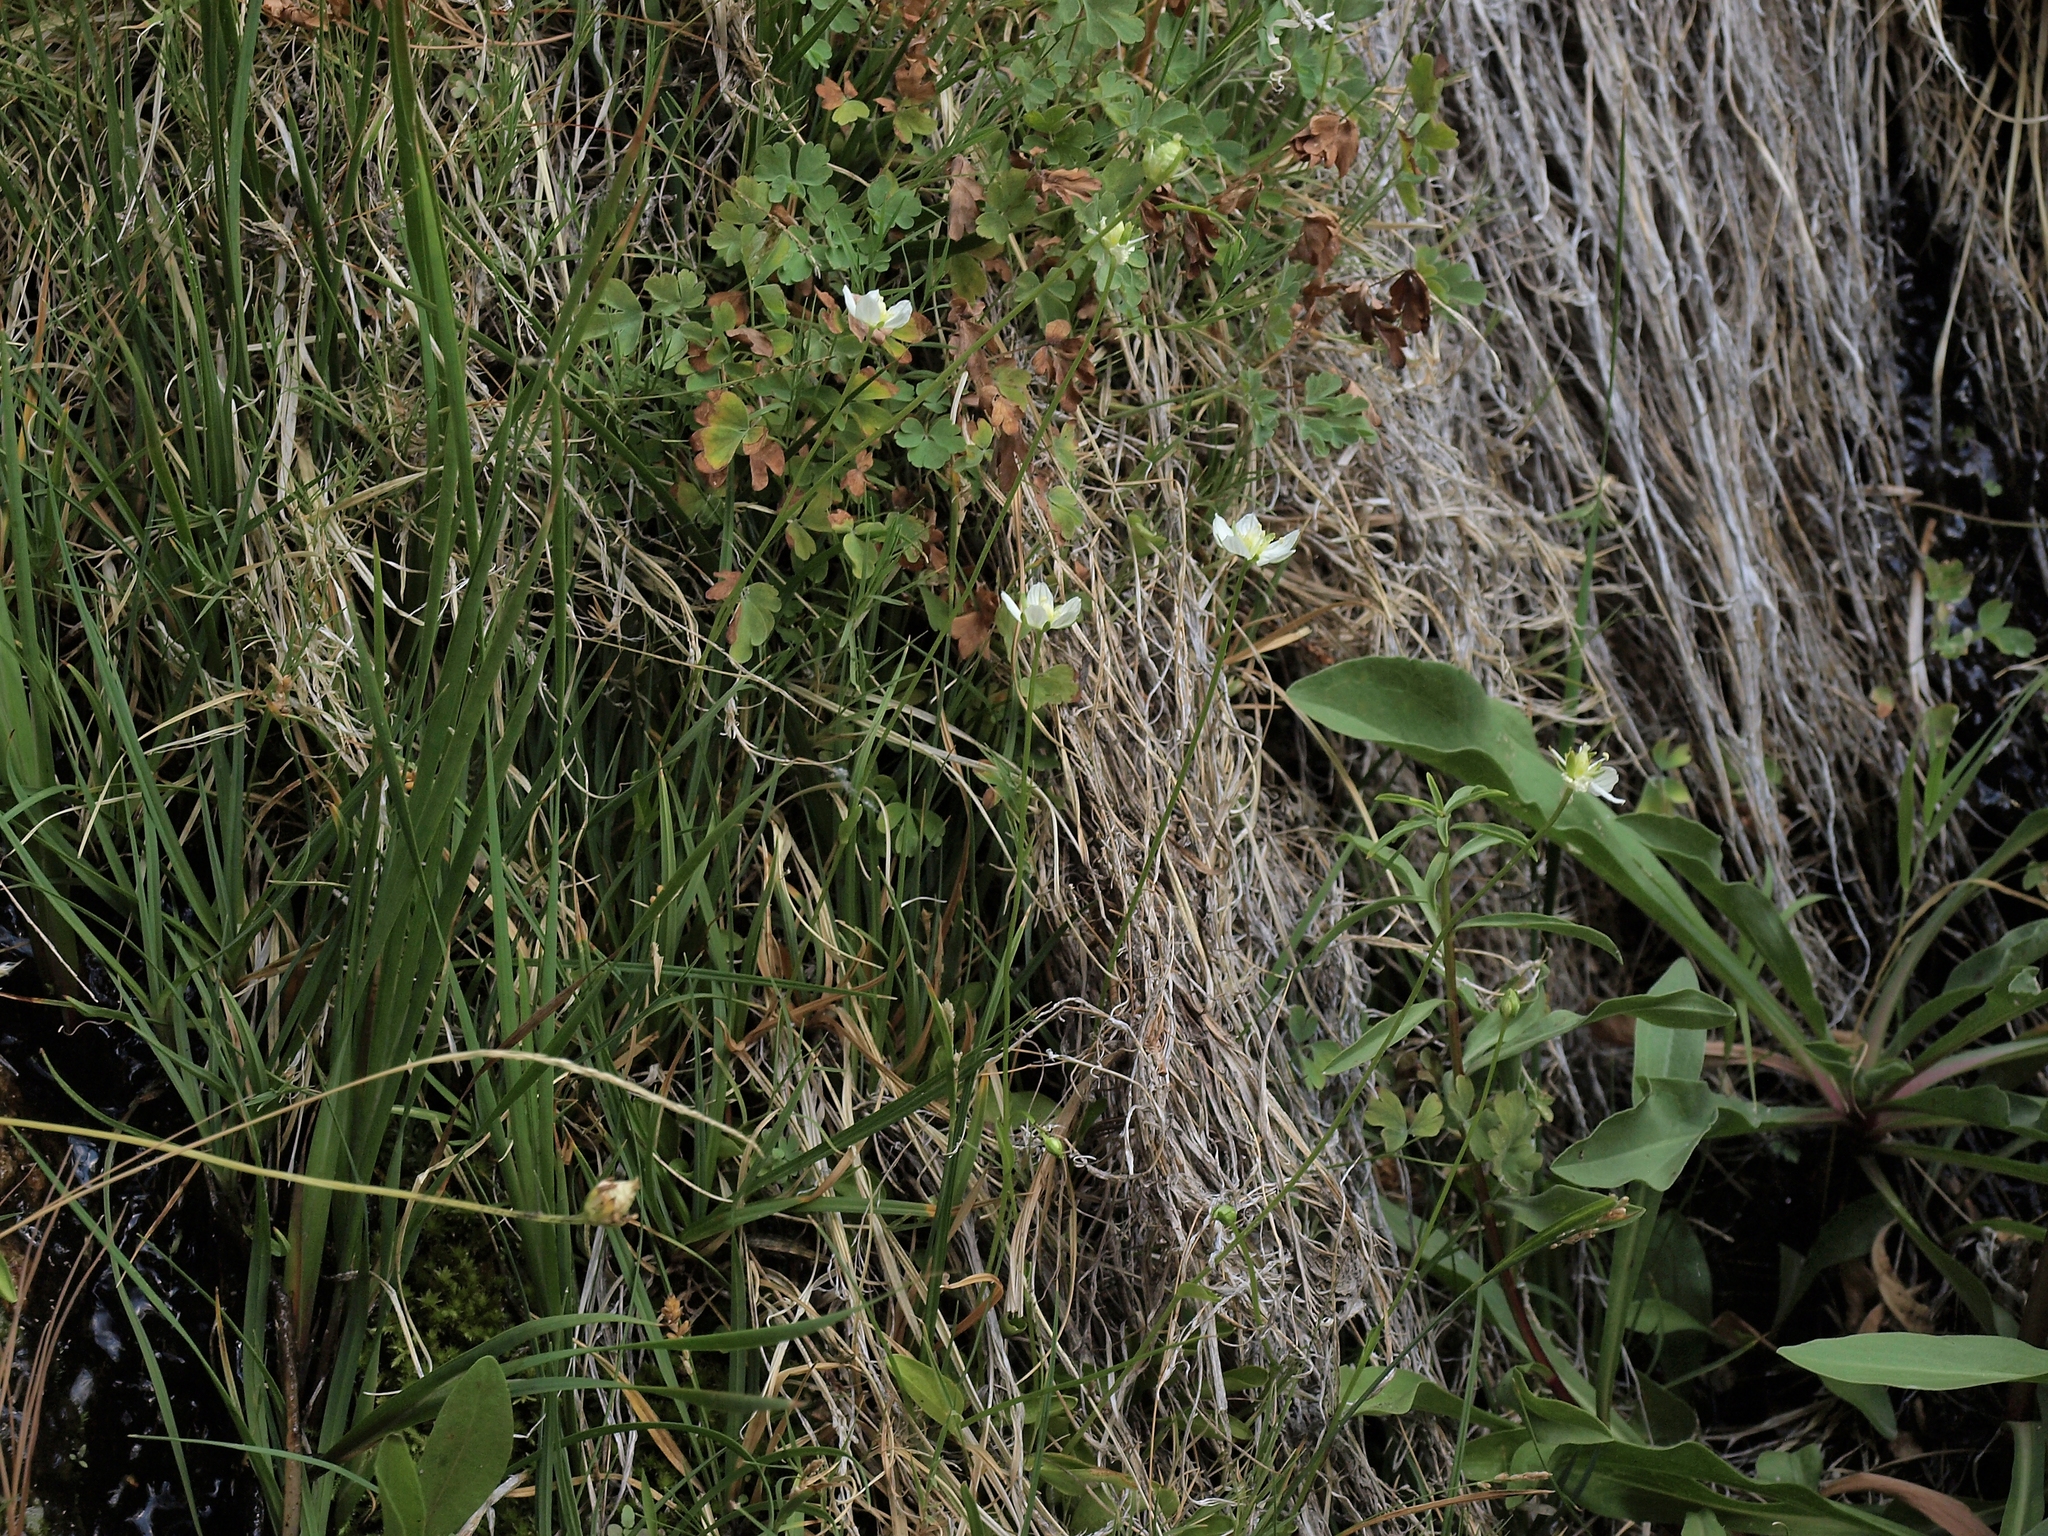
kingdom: Plantae
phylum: Tracheophyta
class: Magnoliopsida
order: Celastrales
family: Parnassiaceae
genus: Parnassia
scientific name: Parnassia palustris
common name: Grass-of-parnassus
